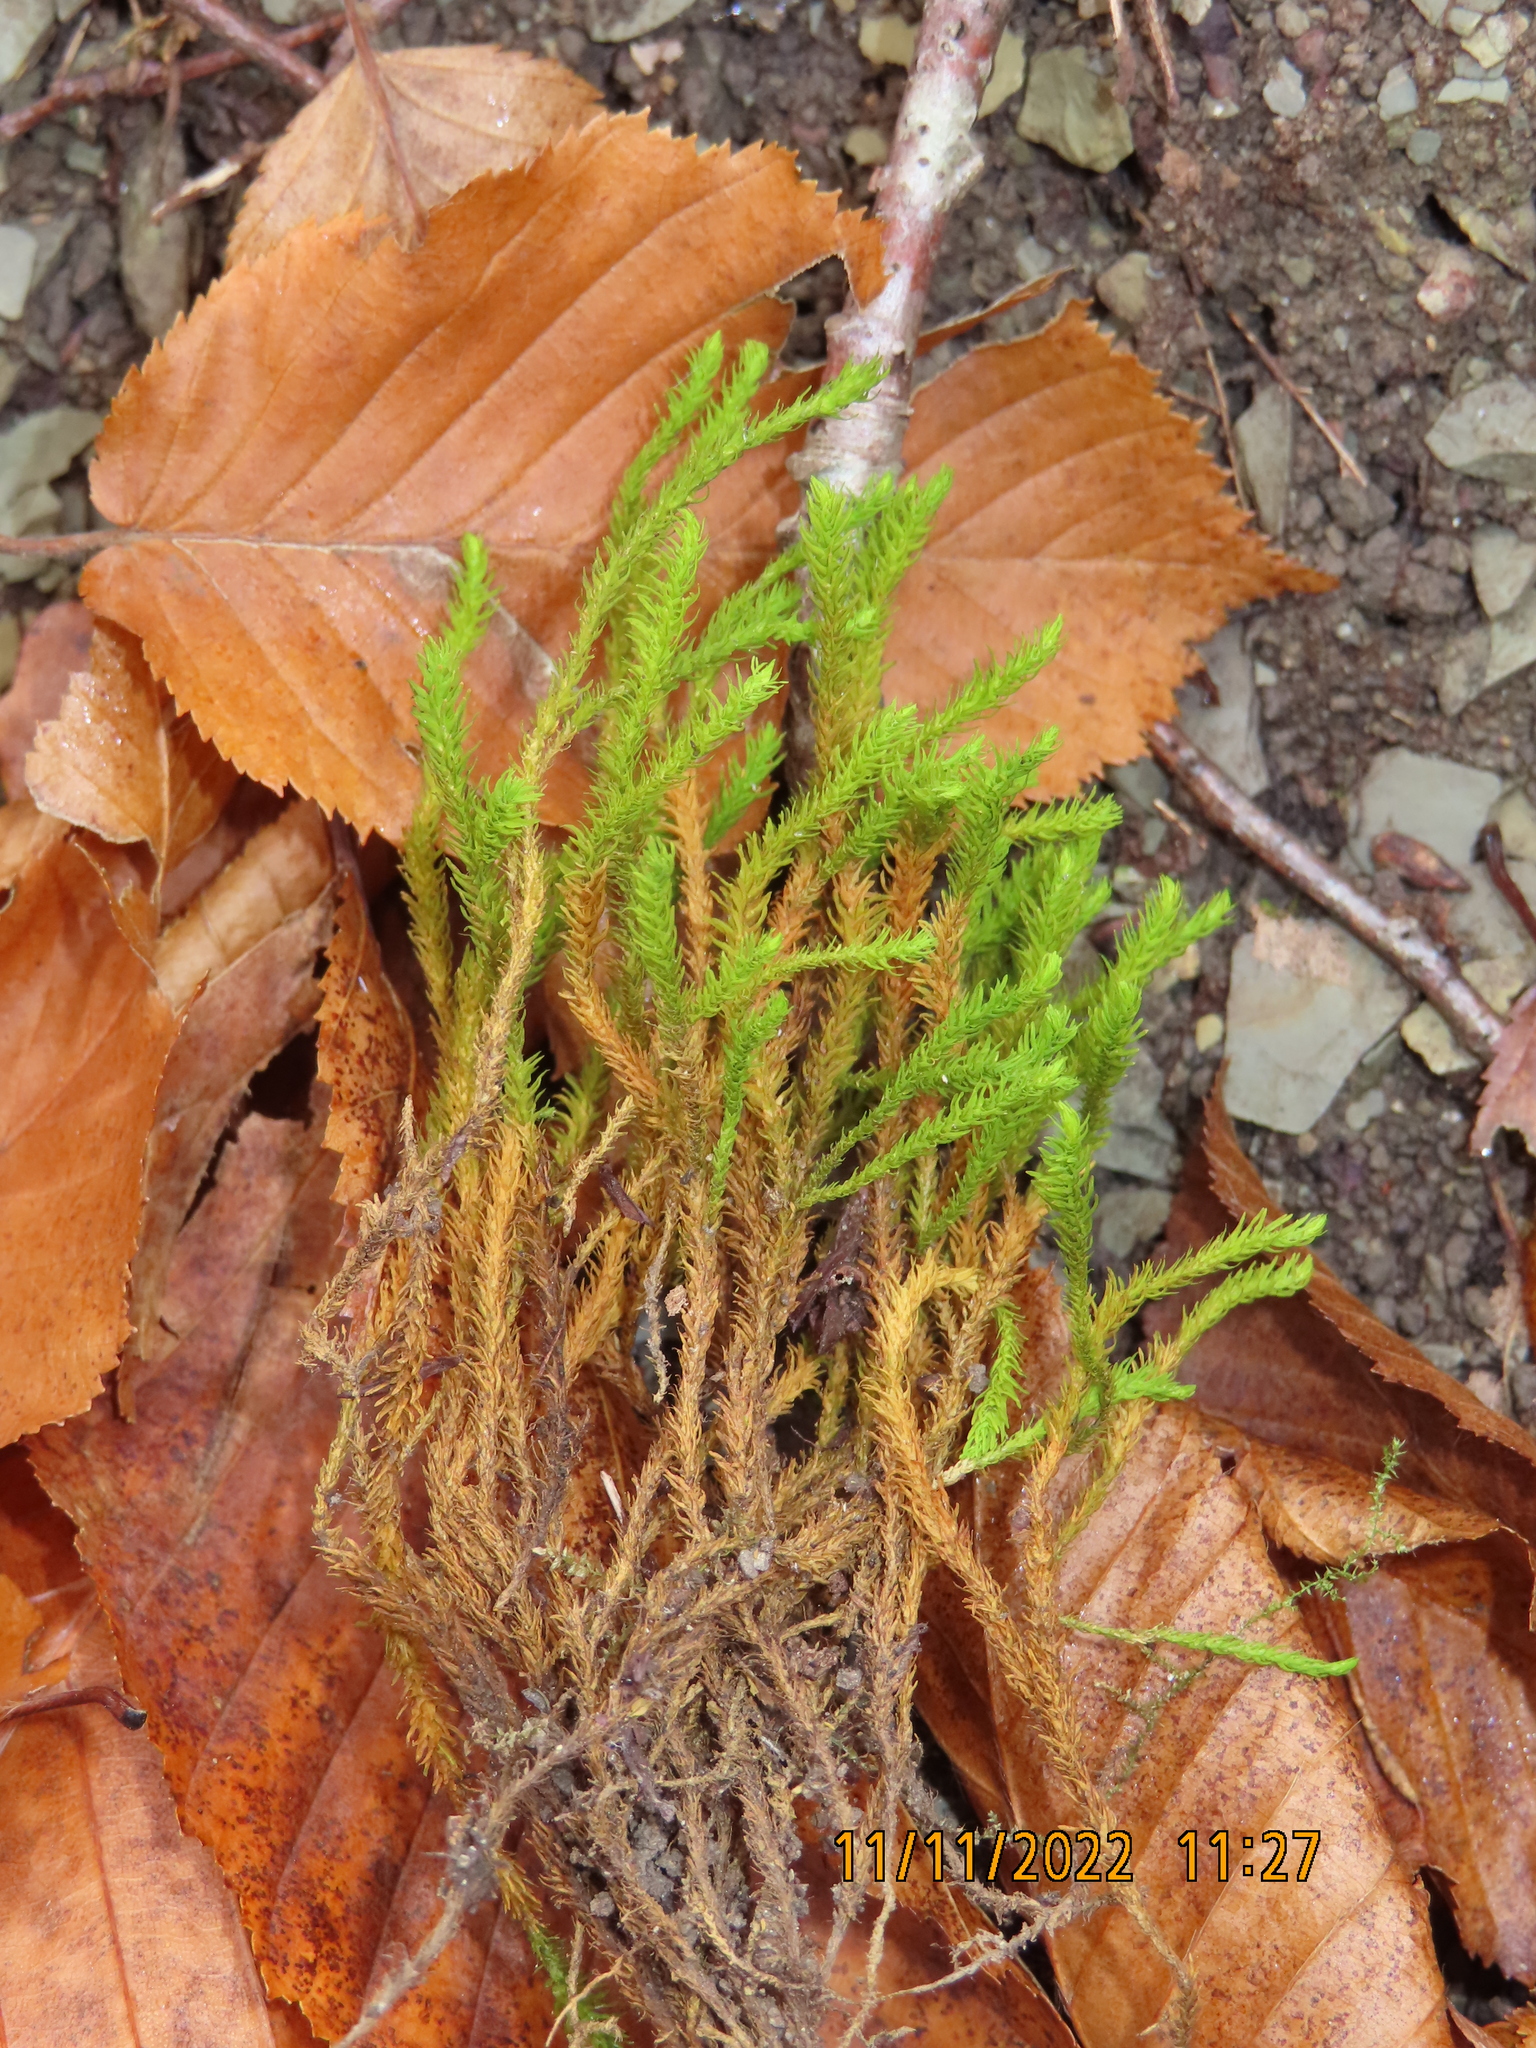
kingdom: Plantae
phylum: Bryophyta
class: Bryopsida
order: Hypnales
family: Anomodontaceae
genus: Anomodon
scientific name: Anomodon viticulosus
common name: Tall anomodon
